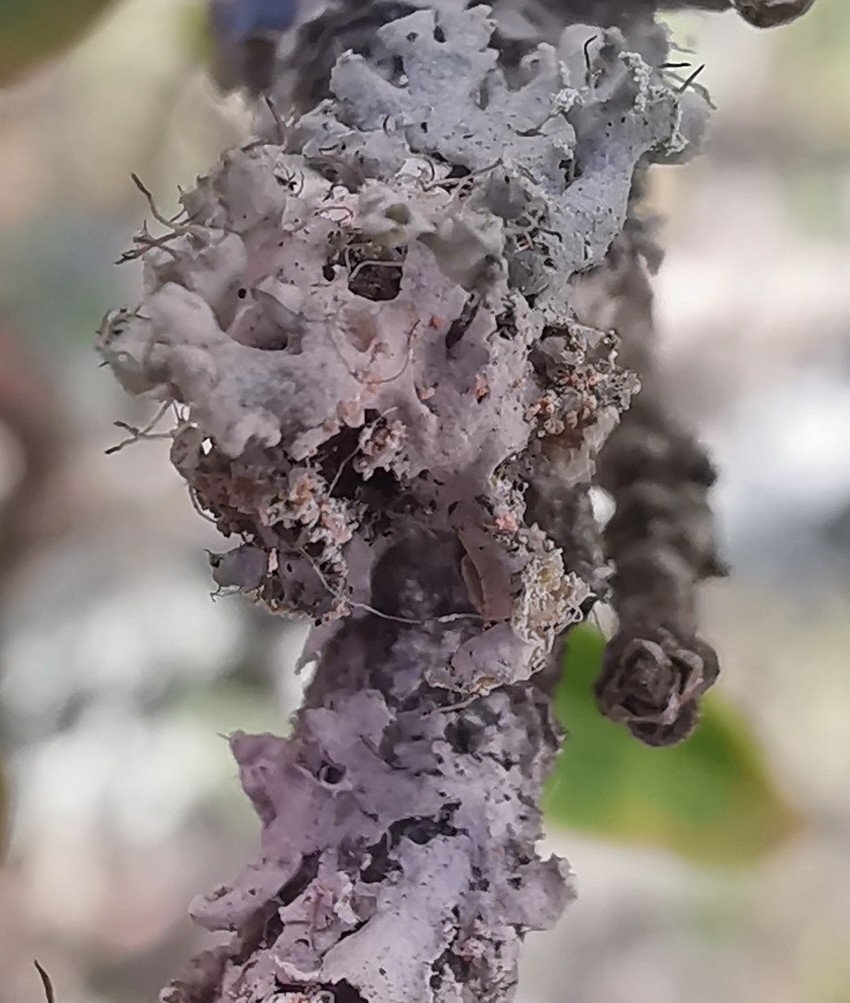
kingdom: Fungi
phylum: Basidiomycota
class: Agaricomycetes
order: Corticiales
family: Corticiaceae
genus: Erythricium
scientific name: Erythricium aurantiacum
